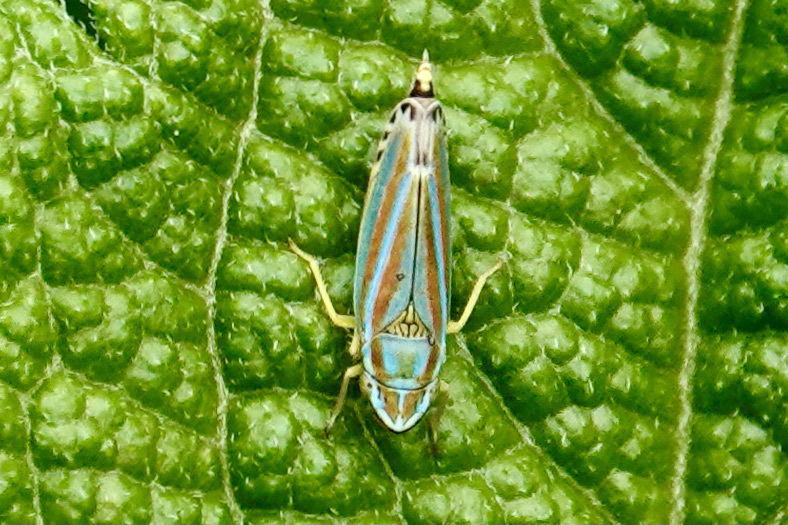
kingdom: Animalia
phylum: Arthropoda
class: Insecta
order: Hemiptera
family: Cicadellidae
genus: Graphocephala
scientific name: Graphocephala versuta
